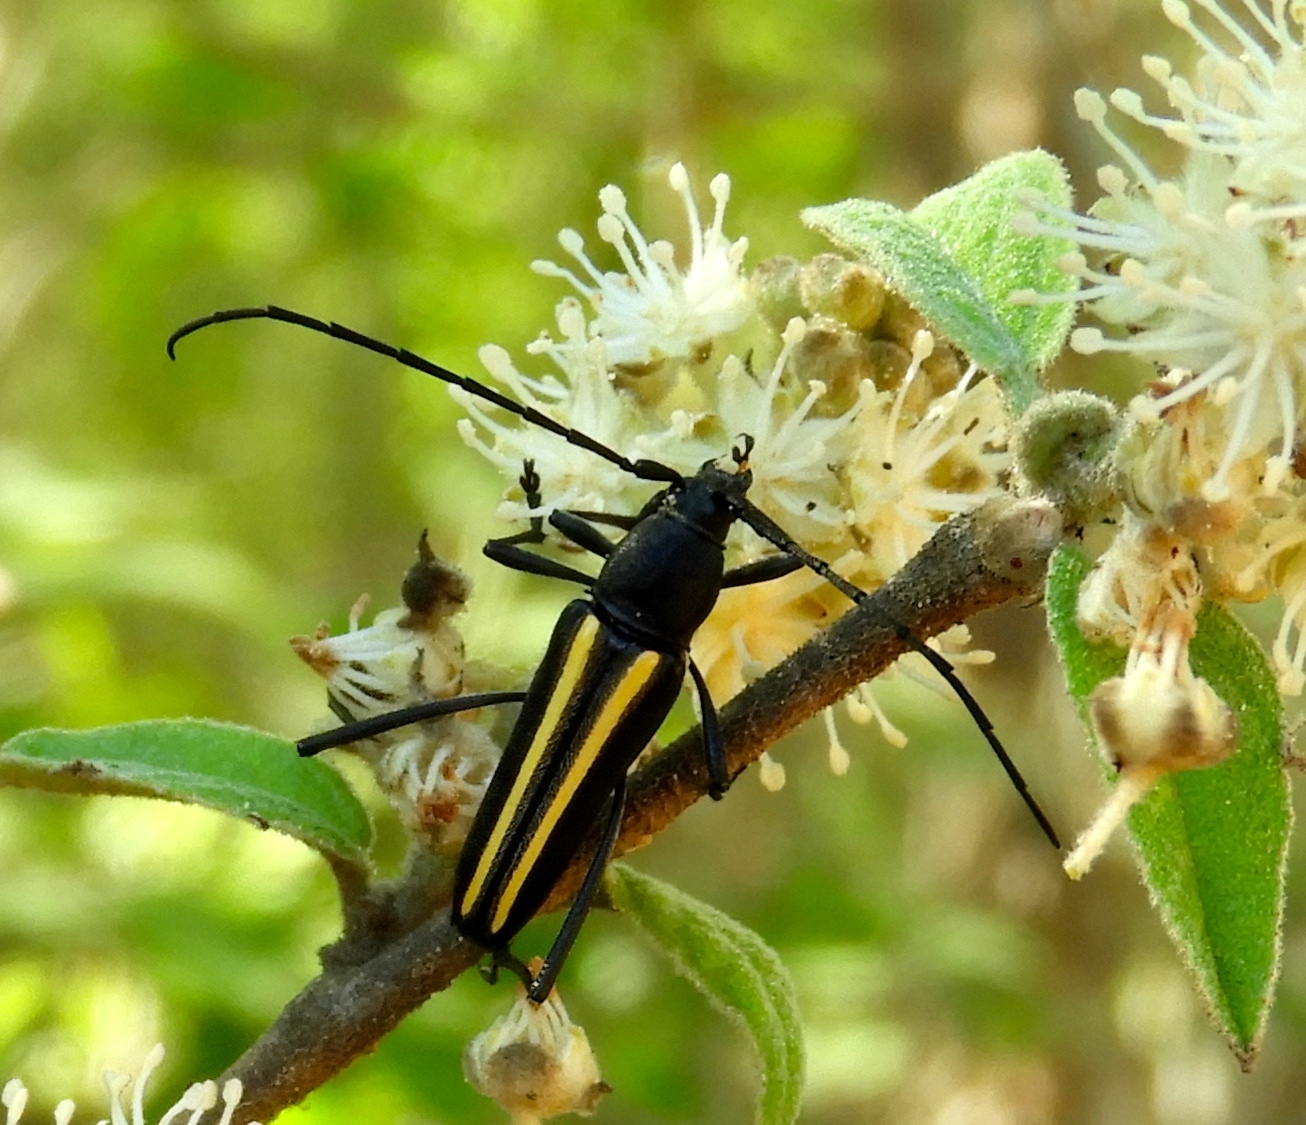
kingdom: Animalia
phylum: Arthropoda
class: Insecta
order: Coleoptera
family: Cerambycidae
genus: Lophalia
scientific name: Lophalia prolata
